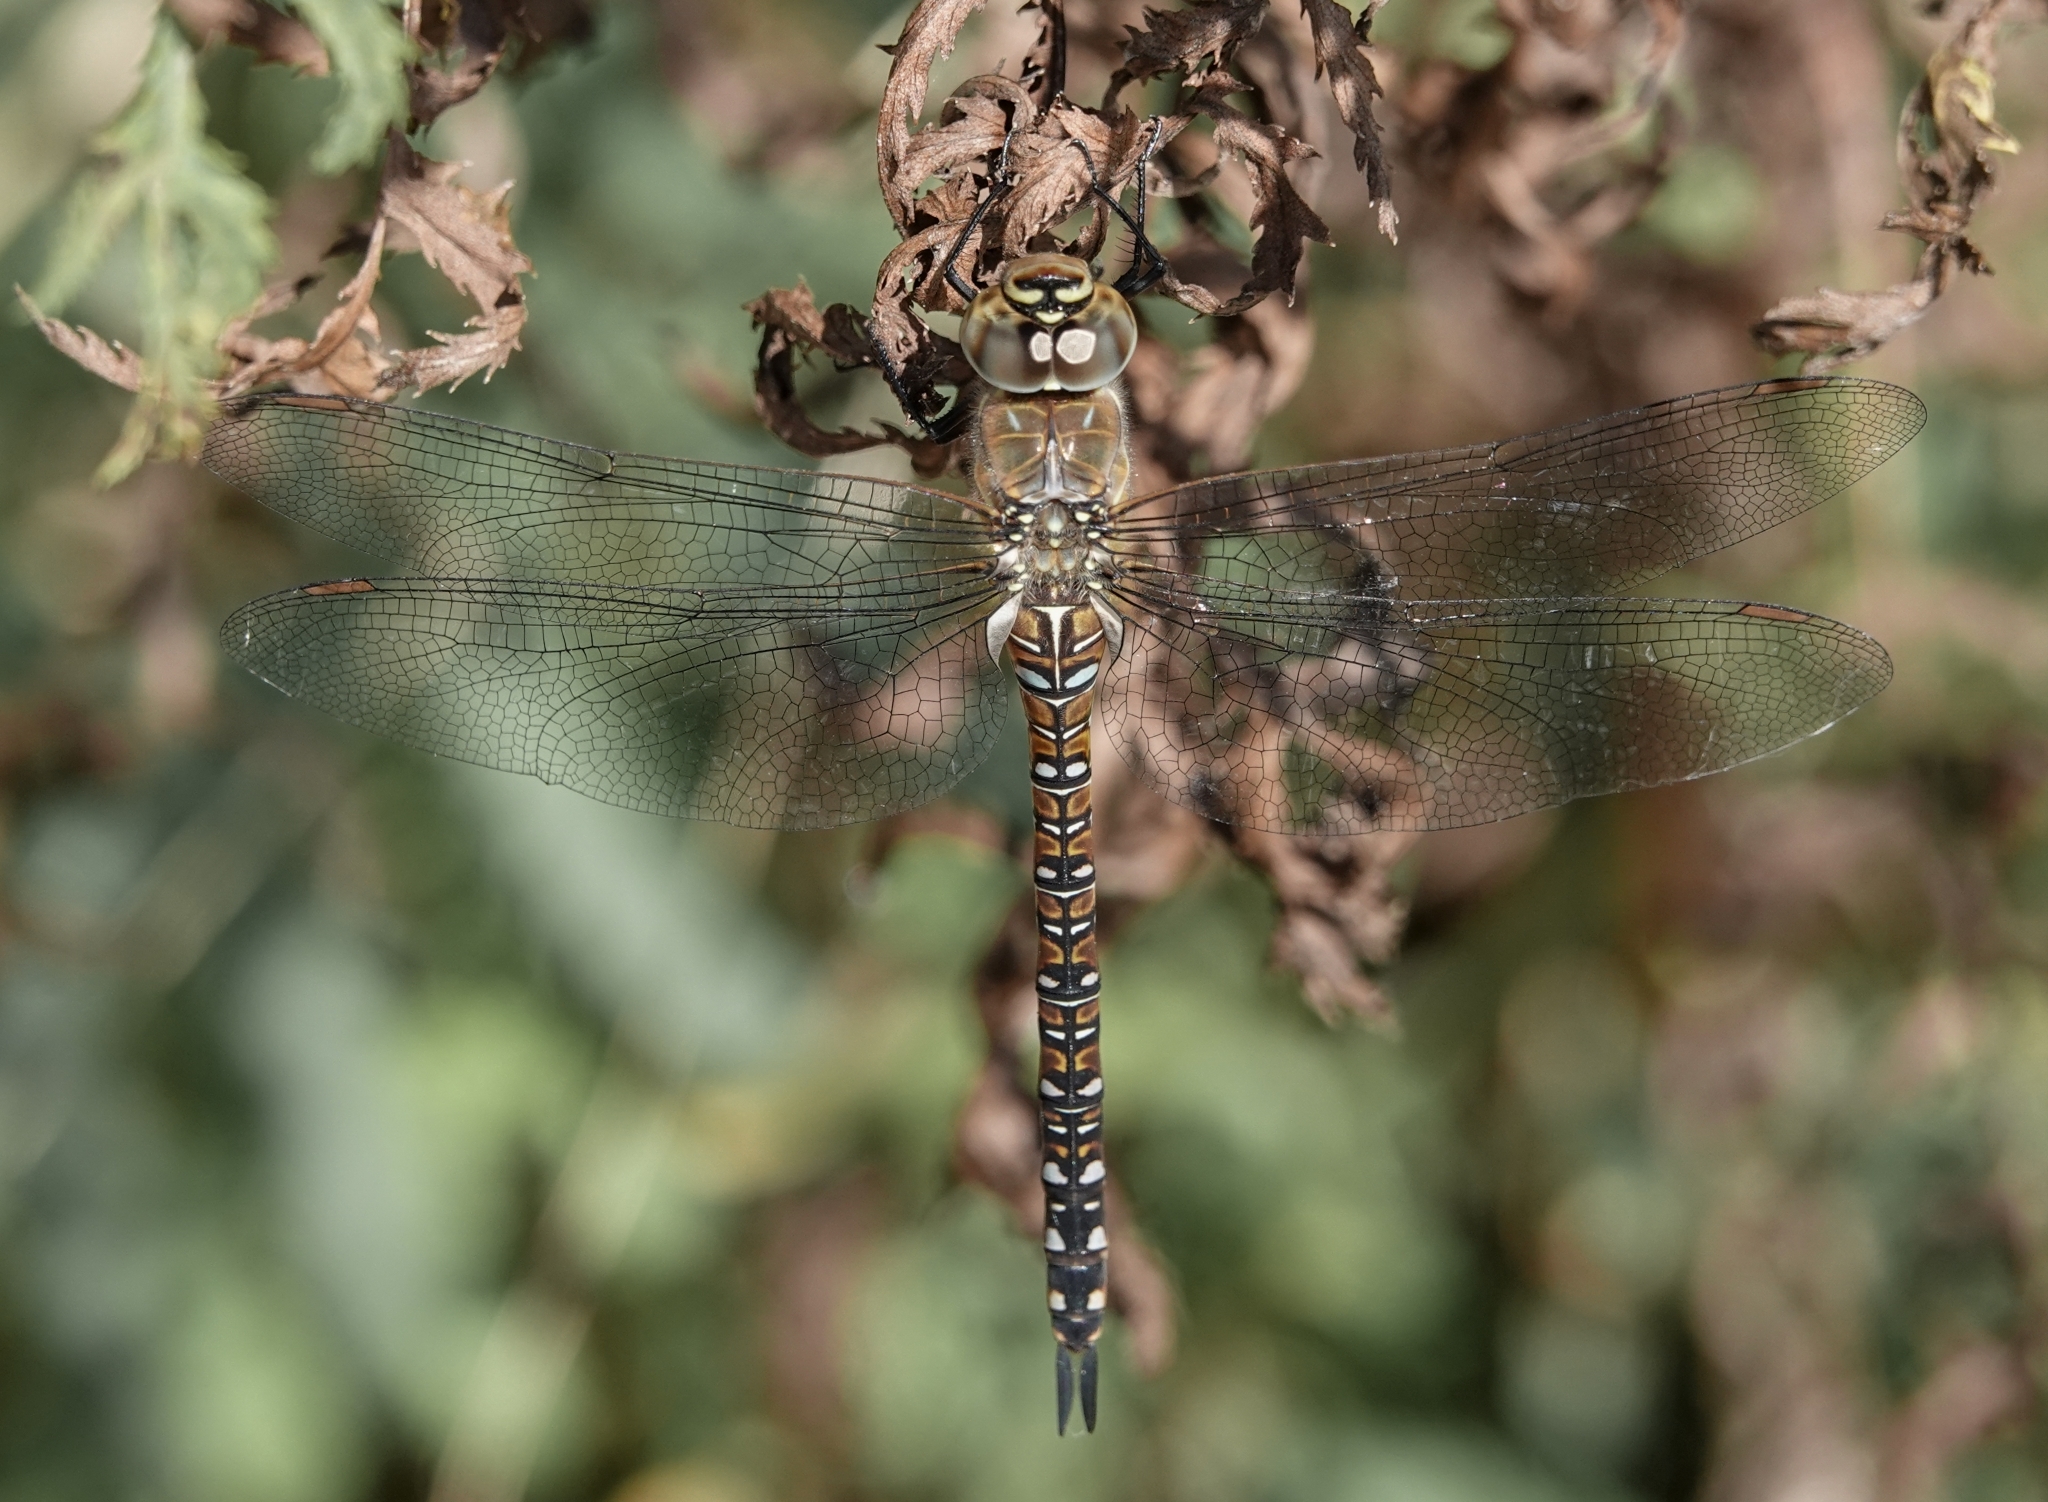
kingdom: Animalia
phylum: Arthropoda
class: Insecta
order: Odonata
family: Aeshnidae
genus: Aeshna
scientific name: Aeshna mixta
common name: Migrant hawker
